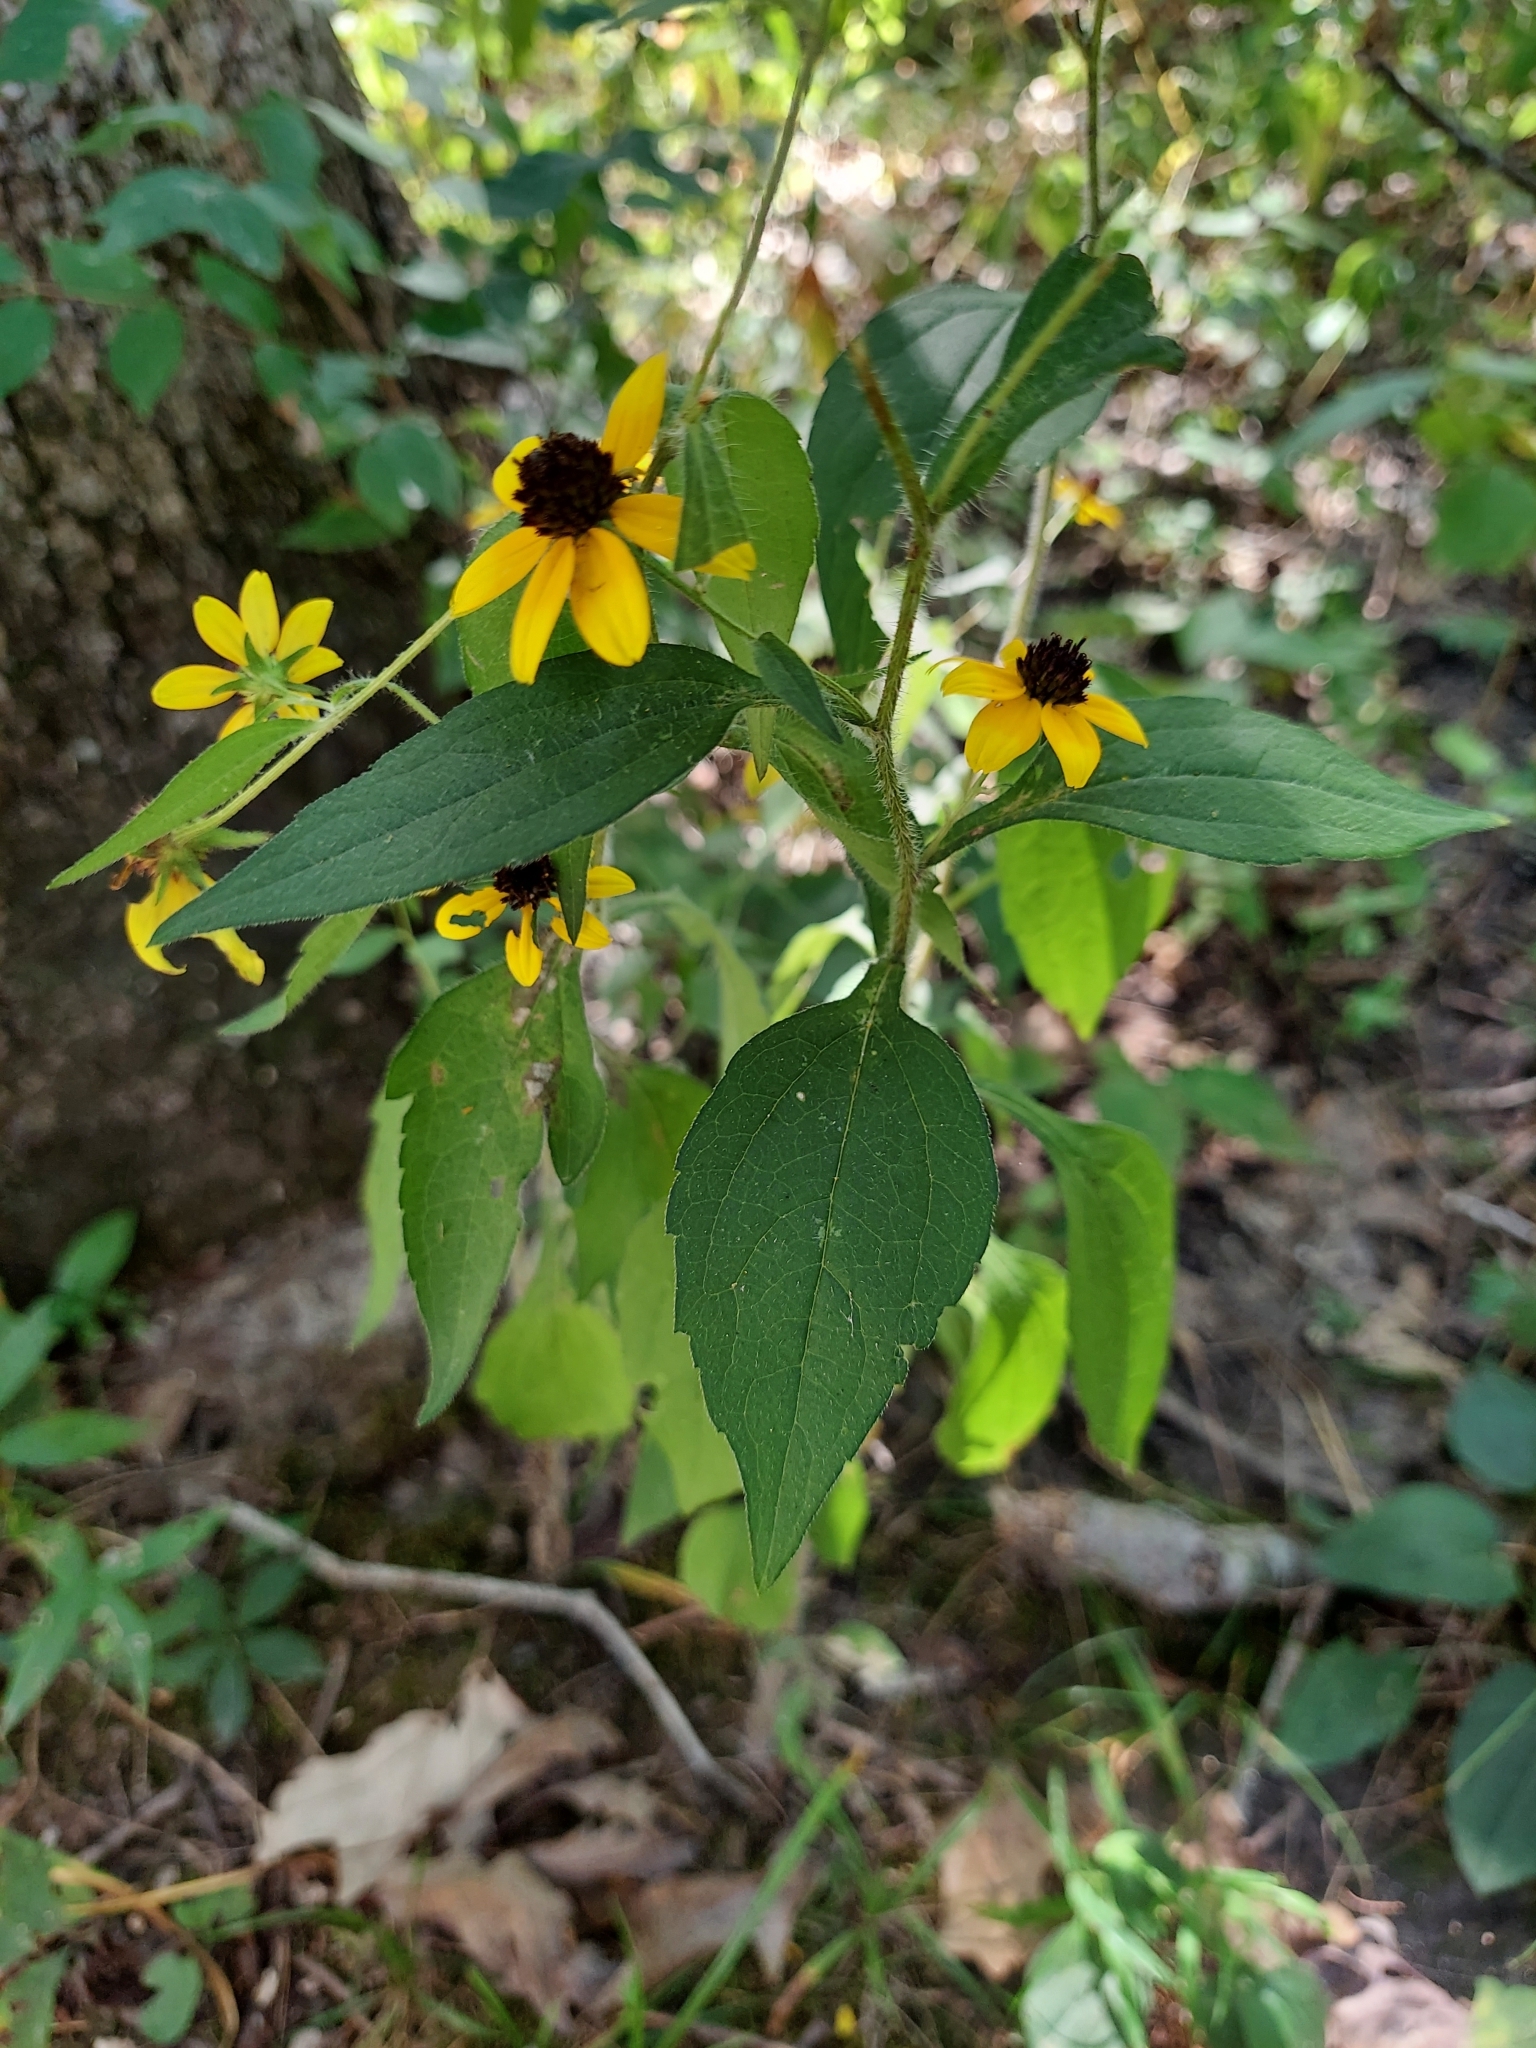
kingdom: Plantae
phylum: Tracheophyta
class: Magnoliopsida
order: Asterales
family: Asteraceae
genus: Rudbeckia
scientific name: Rudbeckia triloba
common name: Thin-leaved coneflower
